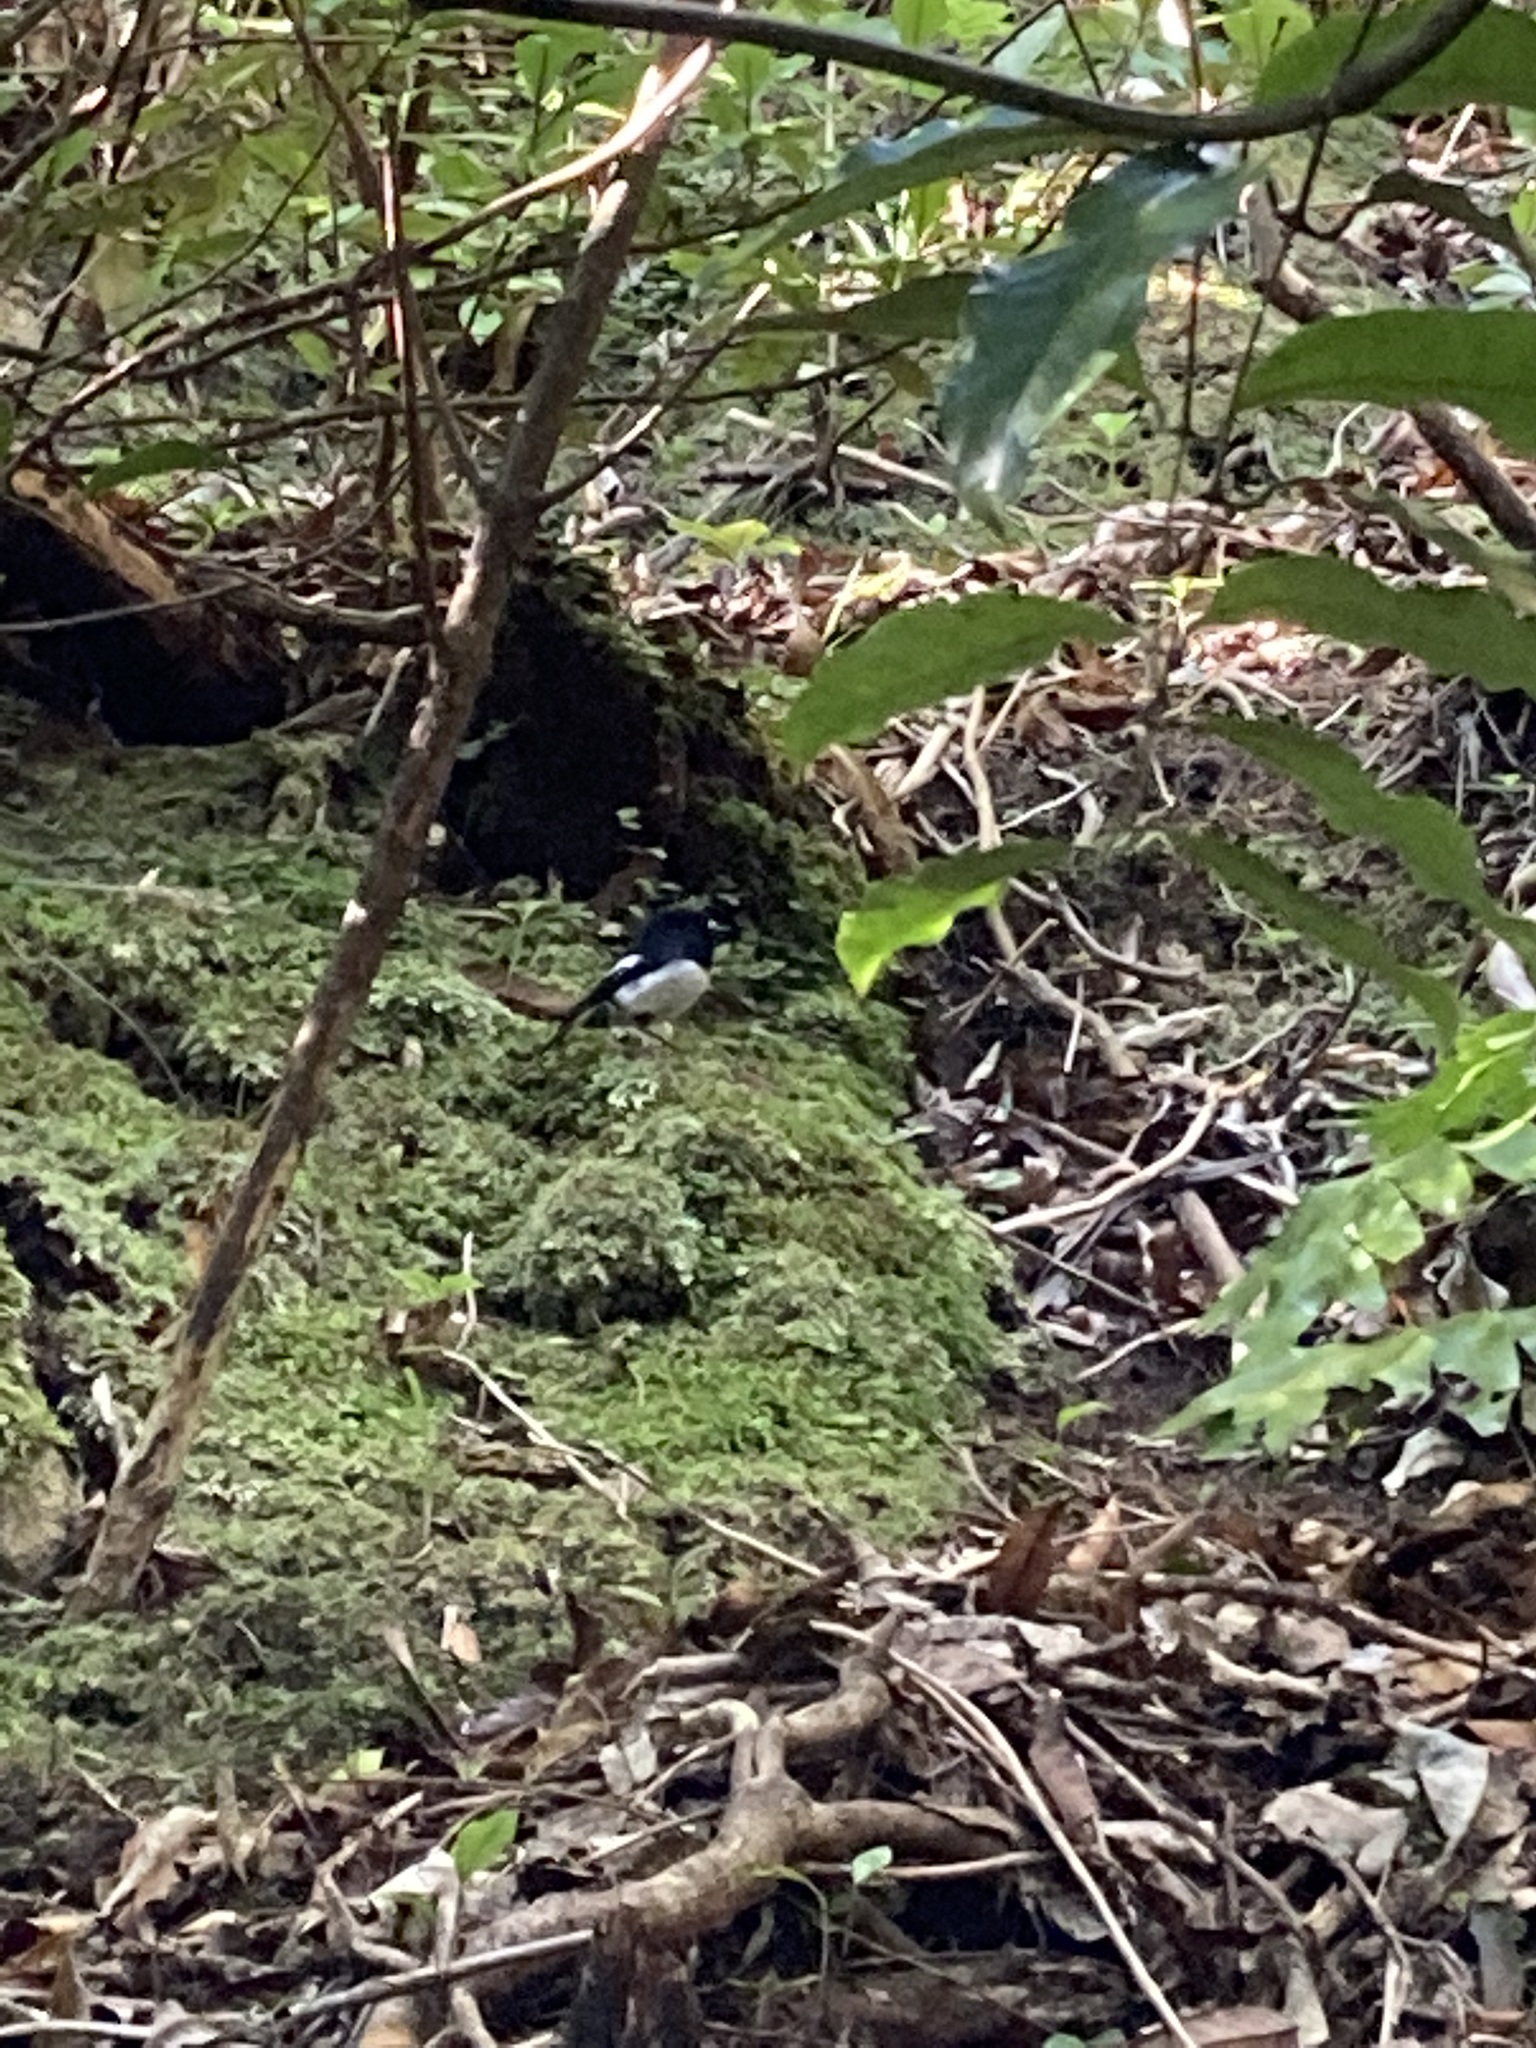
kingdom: Animalia
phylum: Chordata
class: Aves
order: Passeriformes
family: Petroicidae
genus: Petroica
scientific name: Petroica macrocephala
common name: Tomtit
